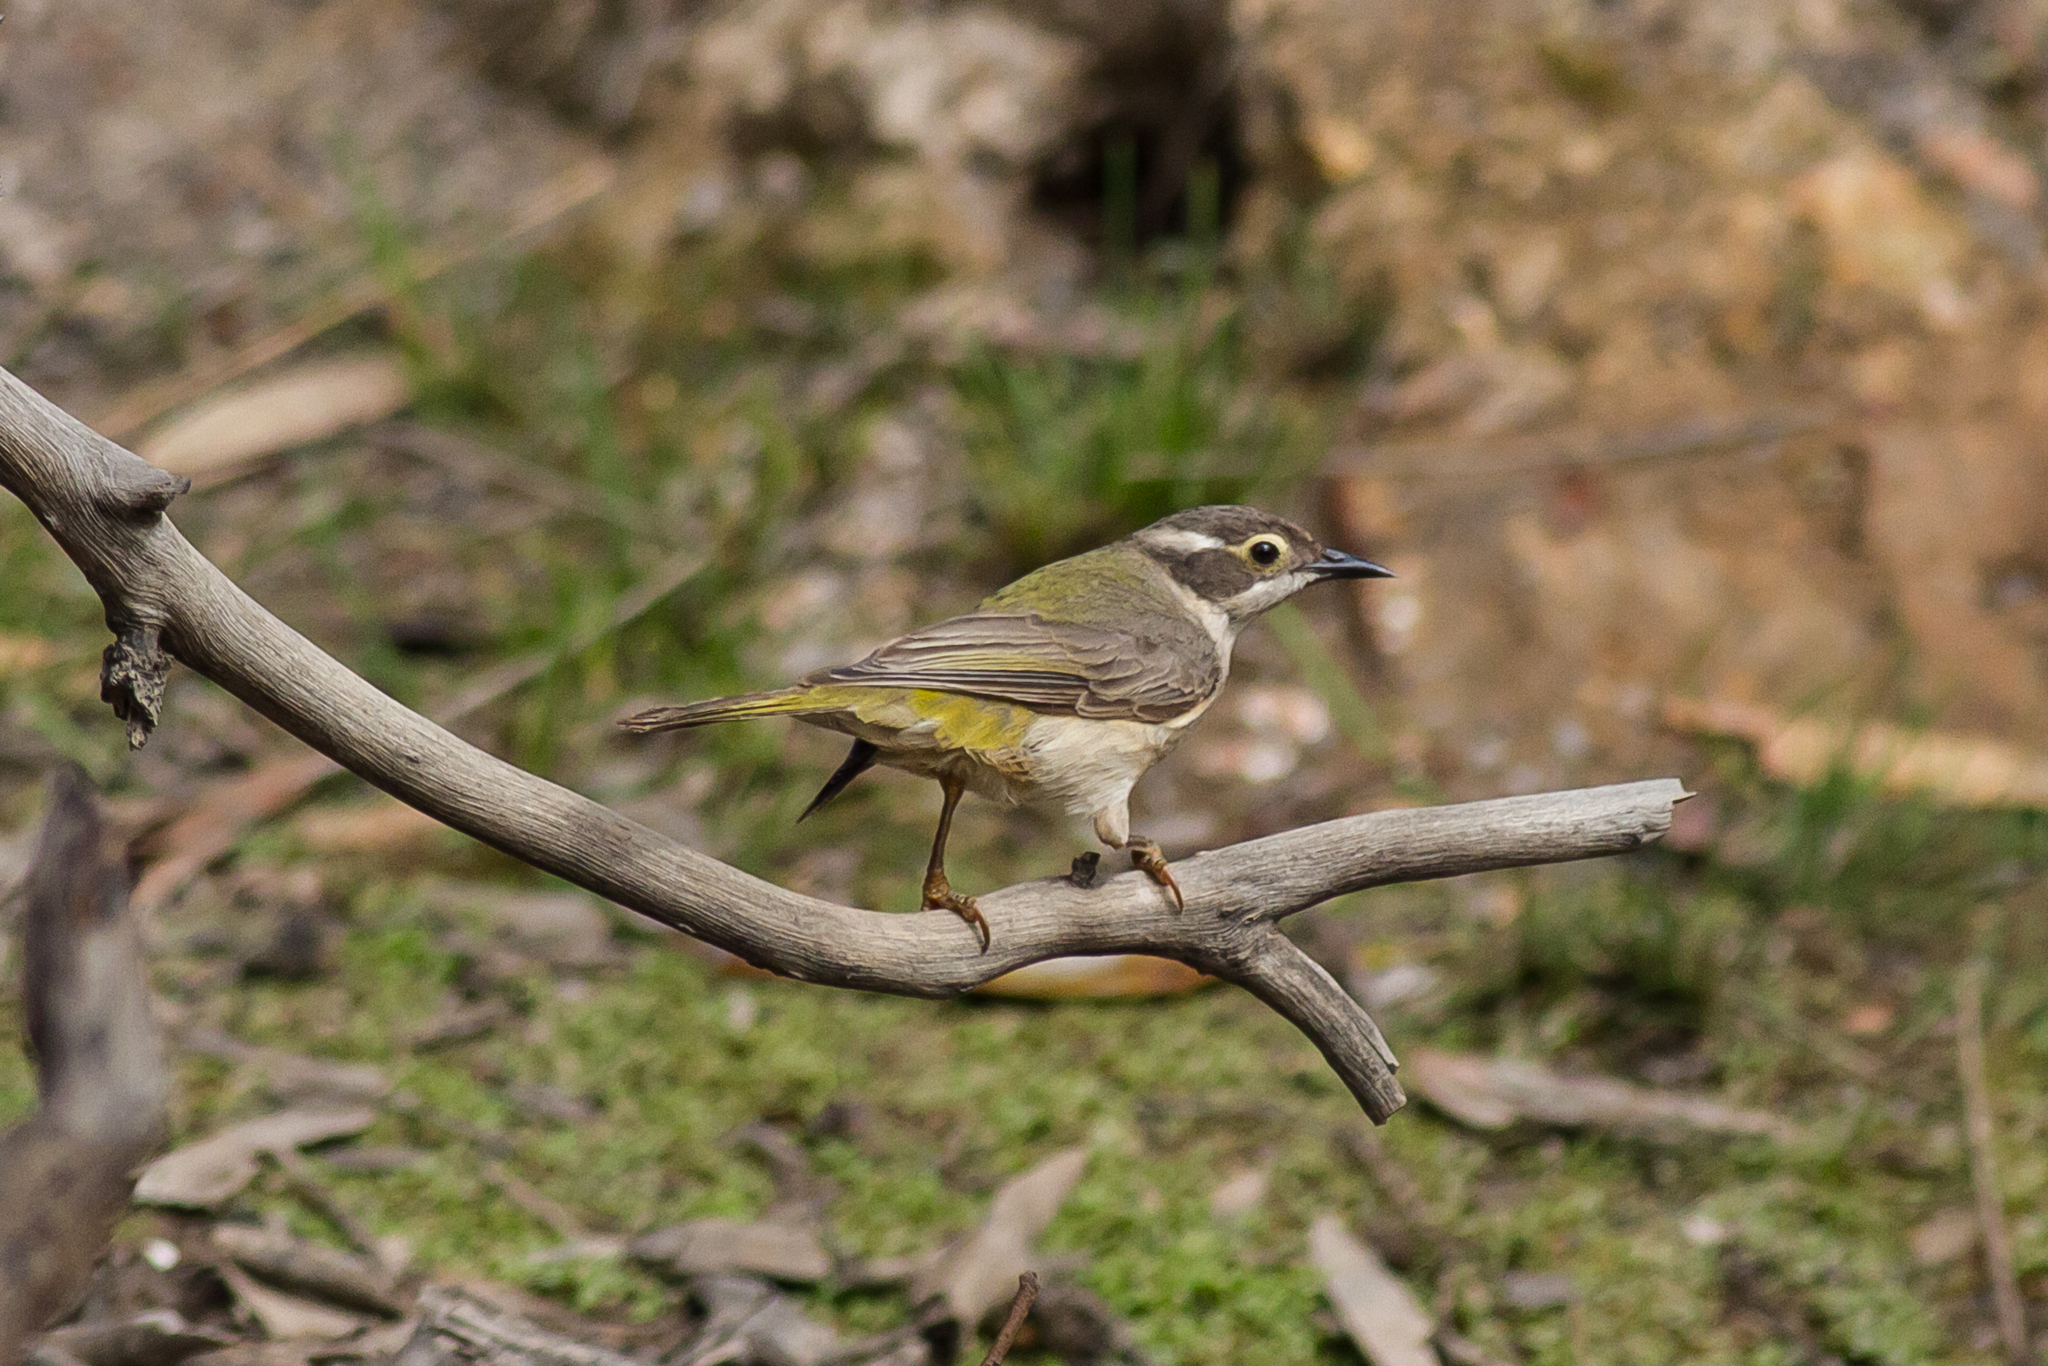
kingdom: Animalia
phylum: Chordata
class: Aves
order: Passeriformes
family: Meliphagidae
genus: Melithreptus
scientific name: Melithreptus brevirostris
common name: Brown-headed honeyeater
